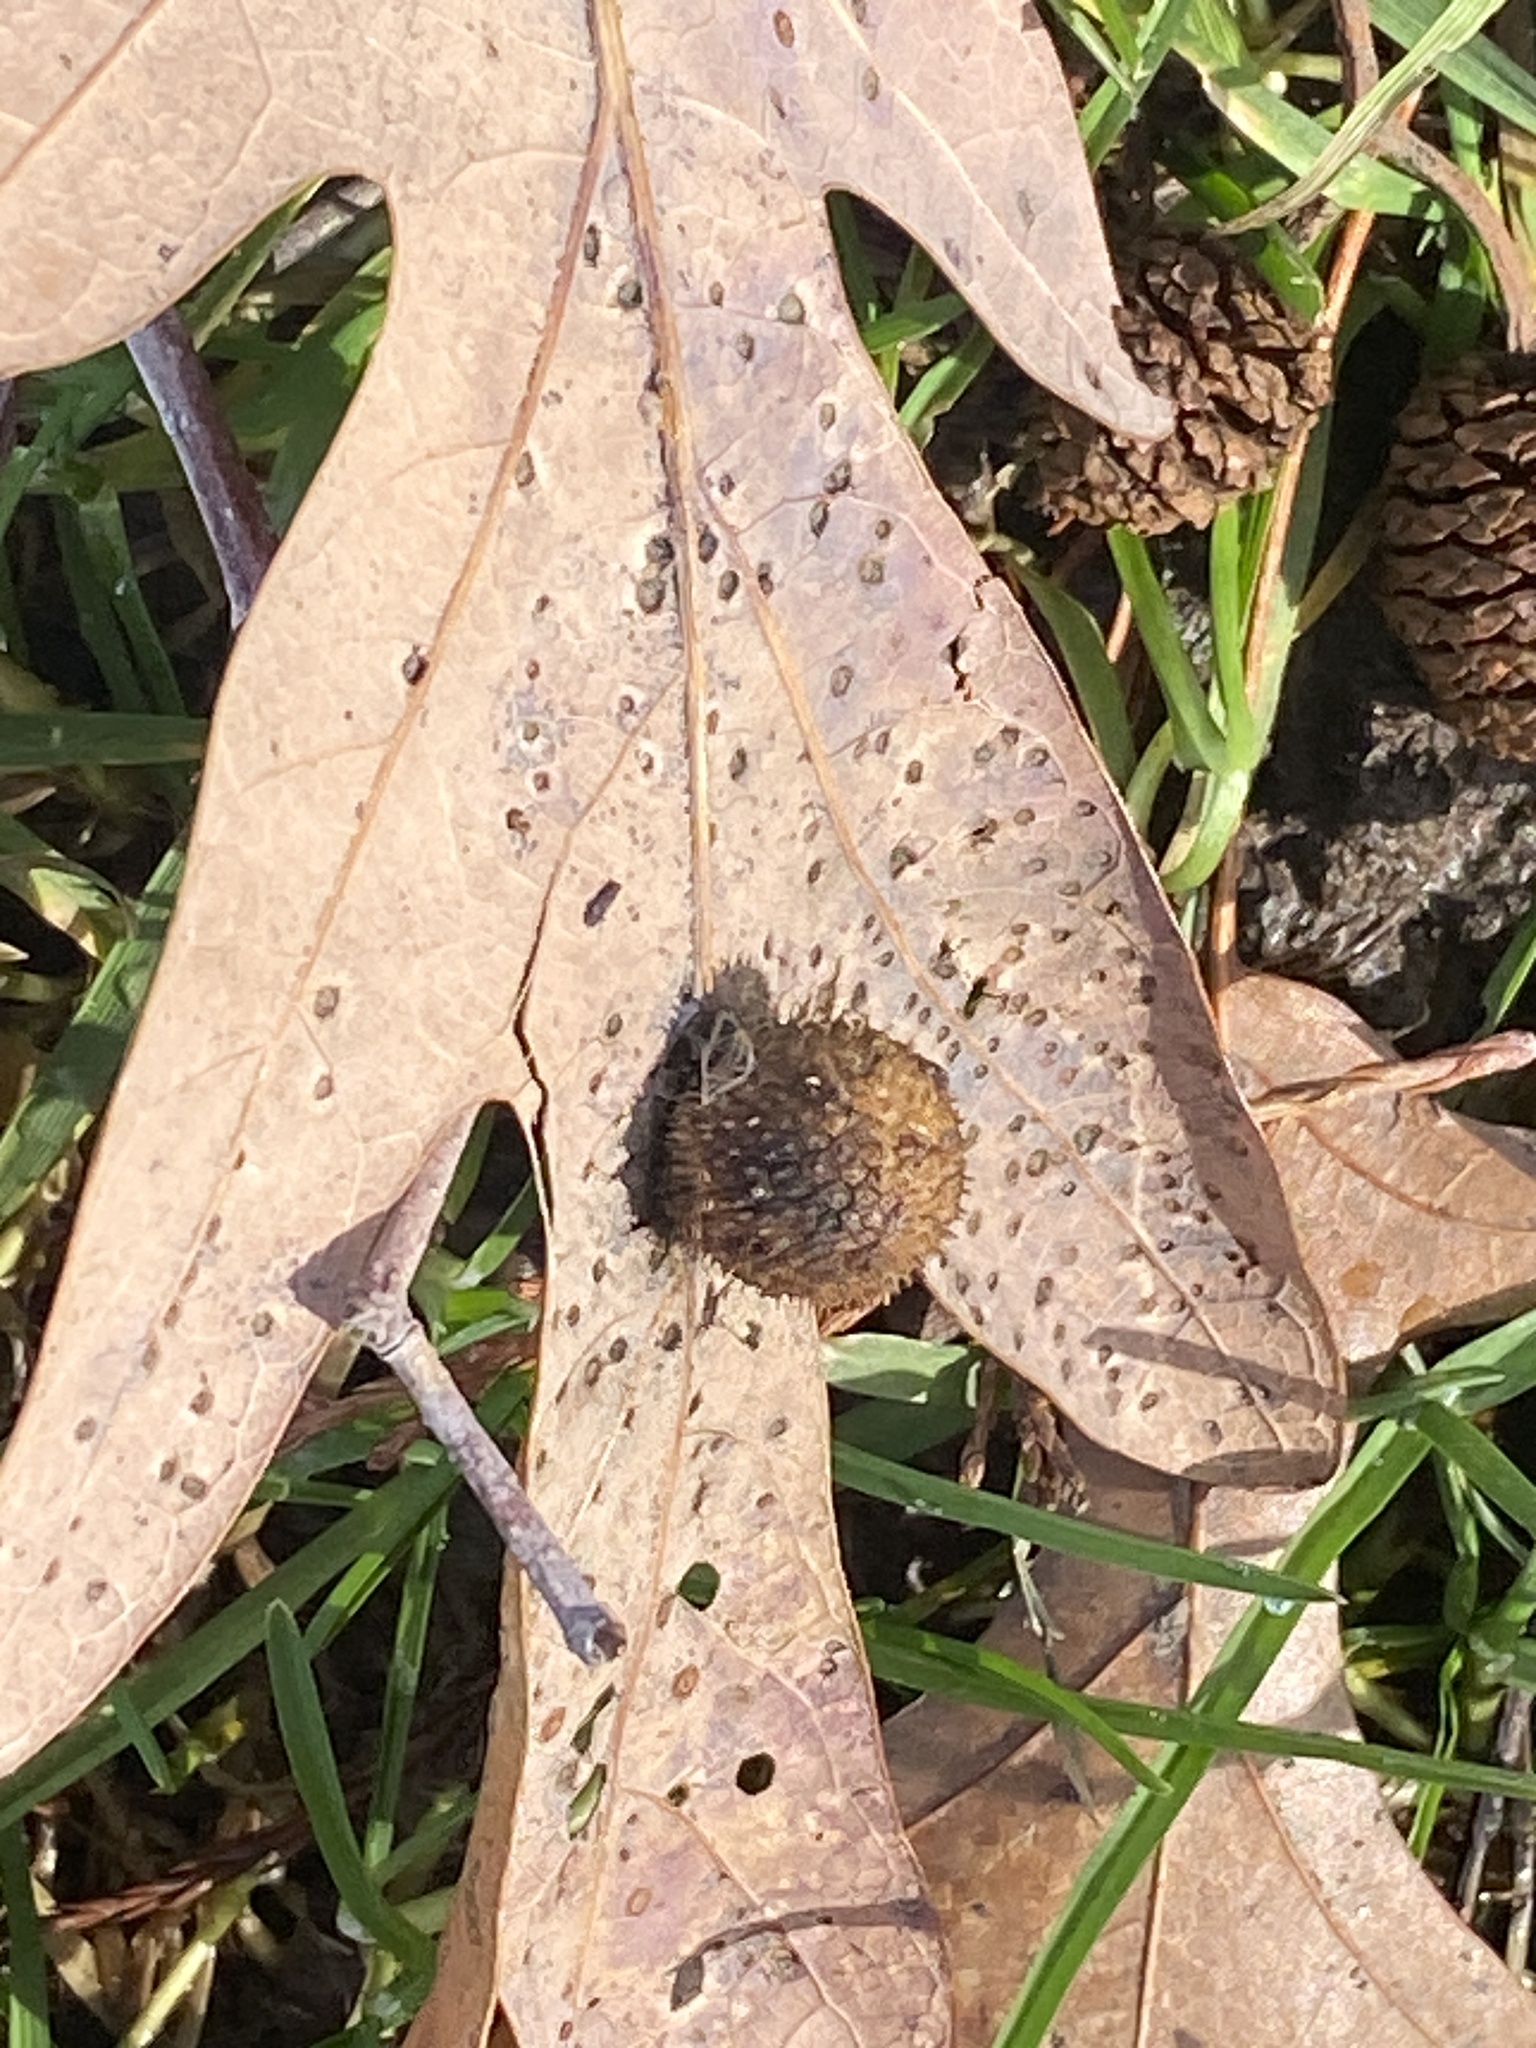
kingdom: Animalia
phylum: Arthropoda
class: Insecta
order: Hymenoptera
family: Cynipidae
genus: Acraspis
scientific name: Acraspis erinacei
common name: Hedgehog gall wasp
